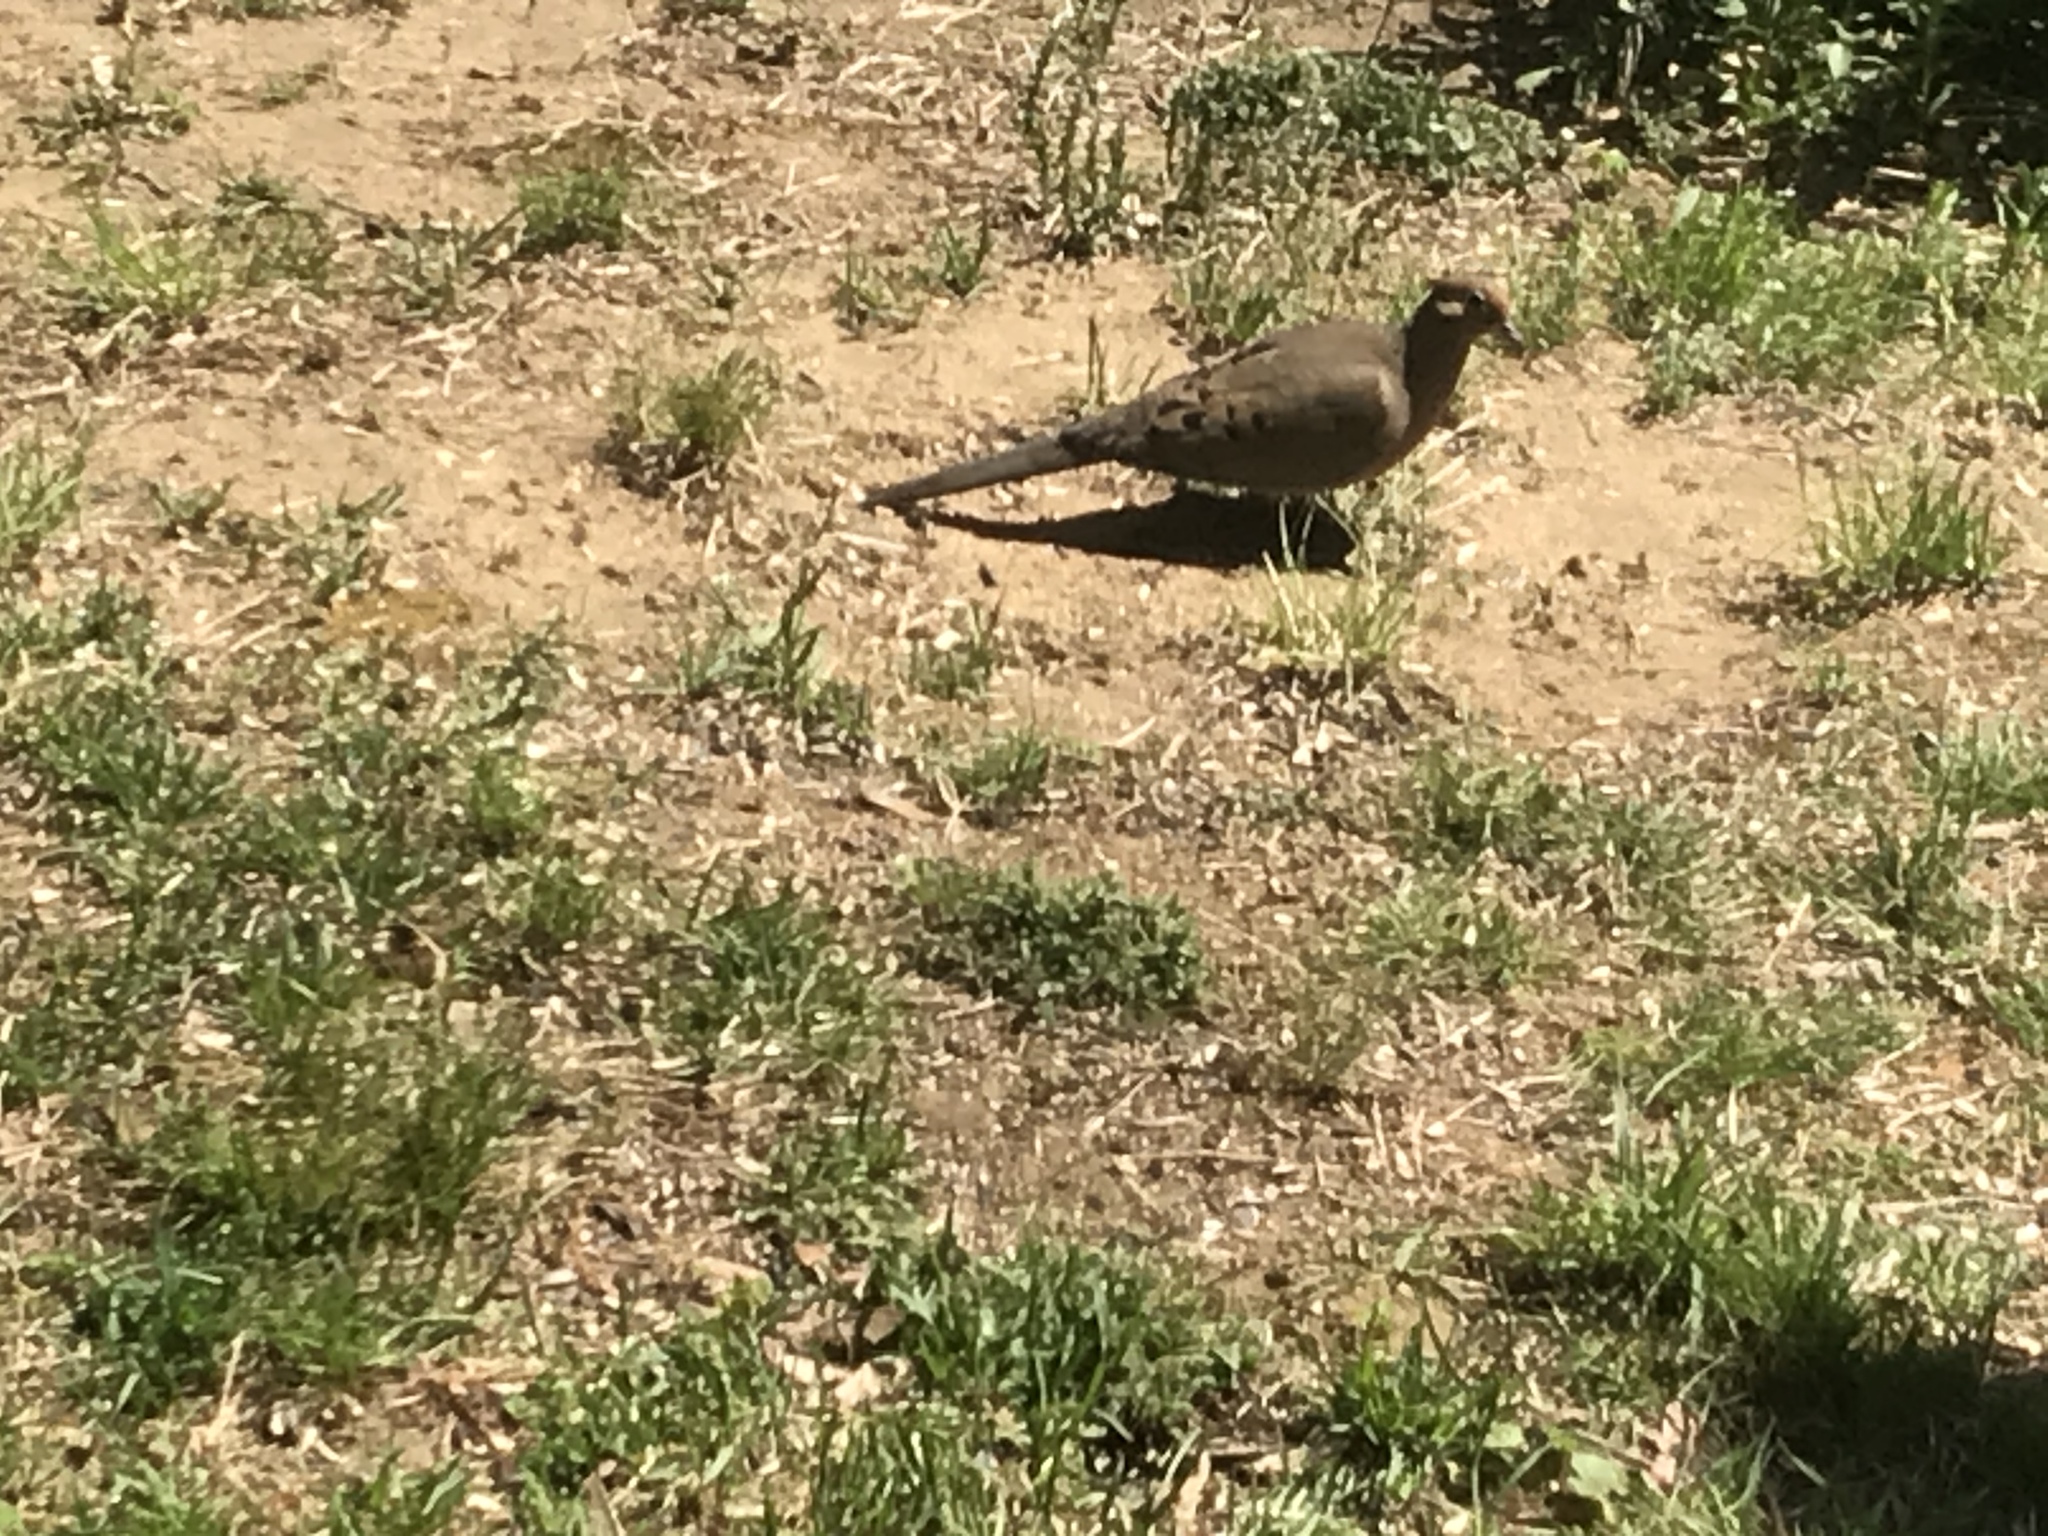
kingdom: Animalia
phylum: Chordata
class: Aves
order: Columbiformes
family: Columbidae
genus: Zenaida
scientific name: Zenaida macroura
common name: Mourning dove
